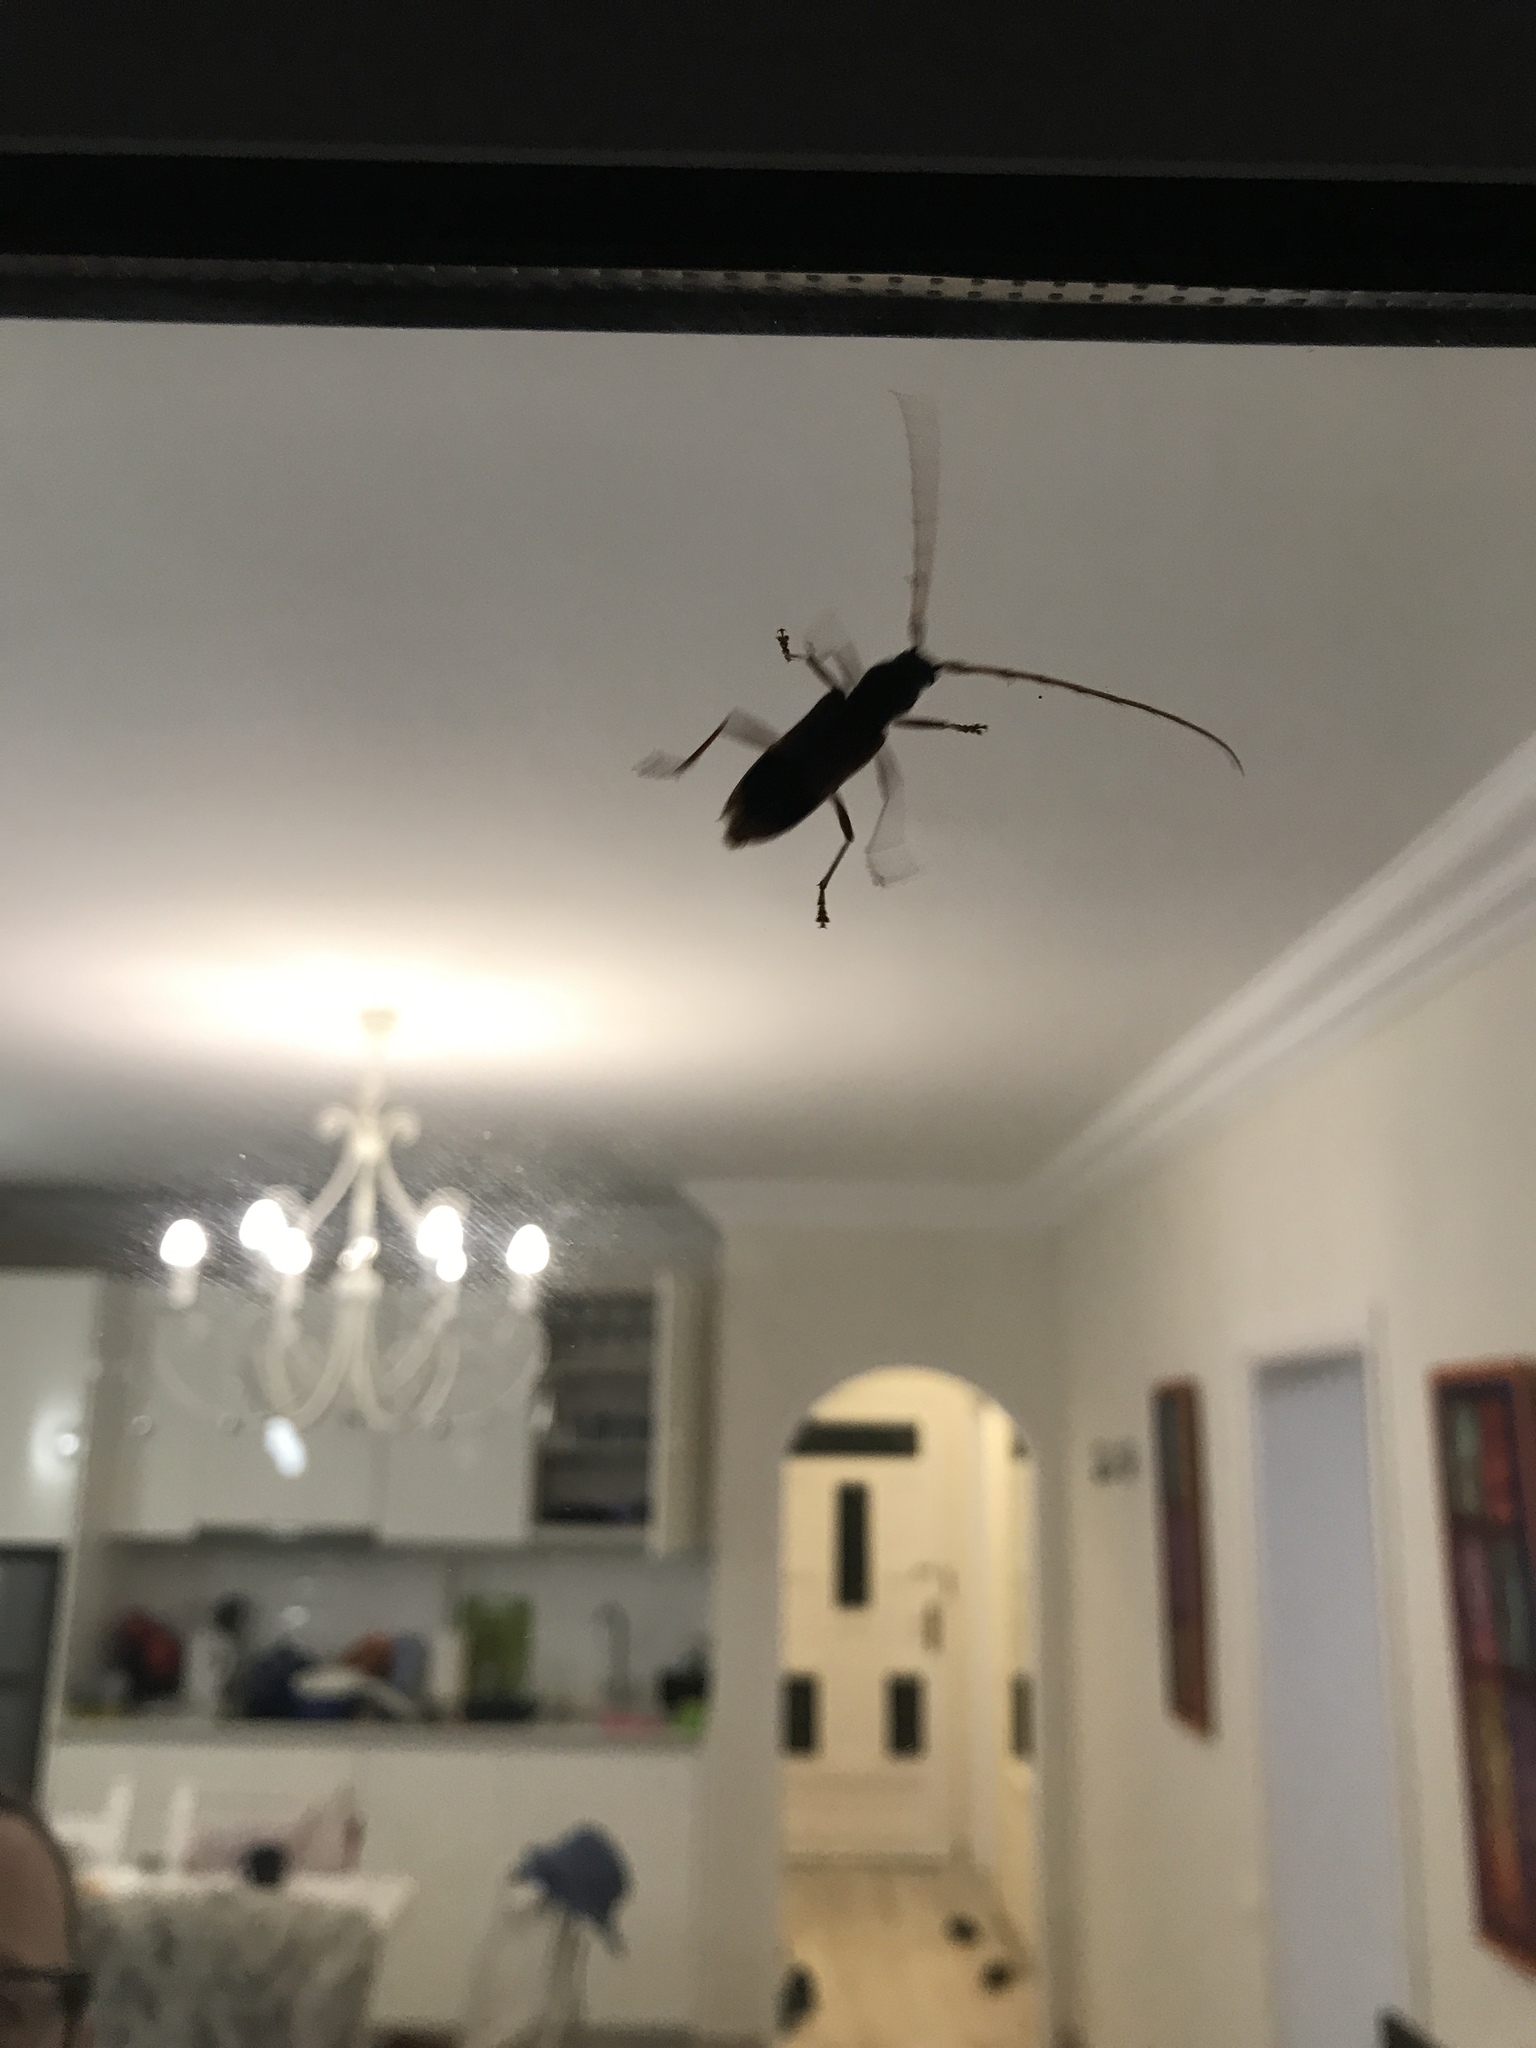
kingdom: Animalia
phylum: Arthropoda
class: Insecta
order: Coleoptera
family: Cerambycidae
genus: Phoracantha
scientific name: Phoracantha recurva
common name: Eucalyptus longhorned borer
